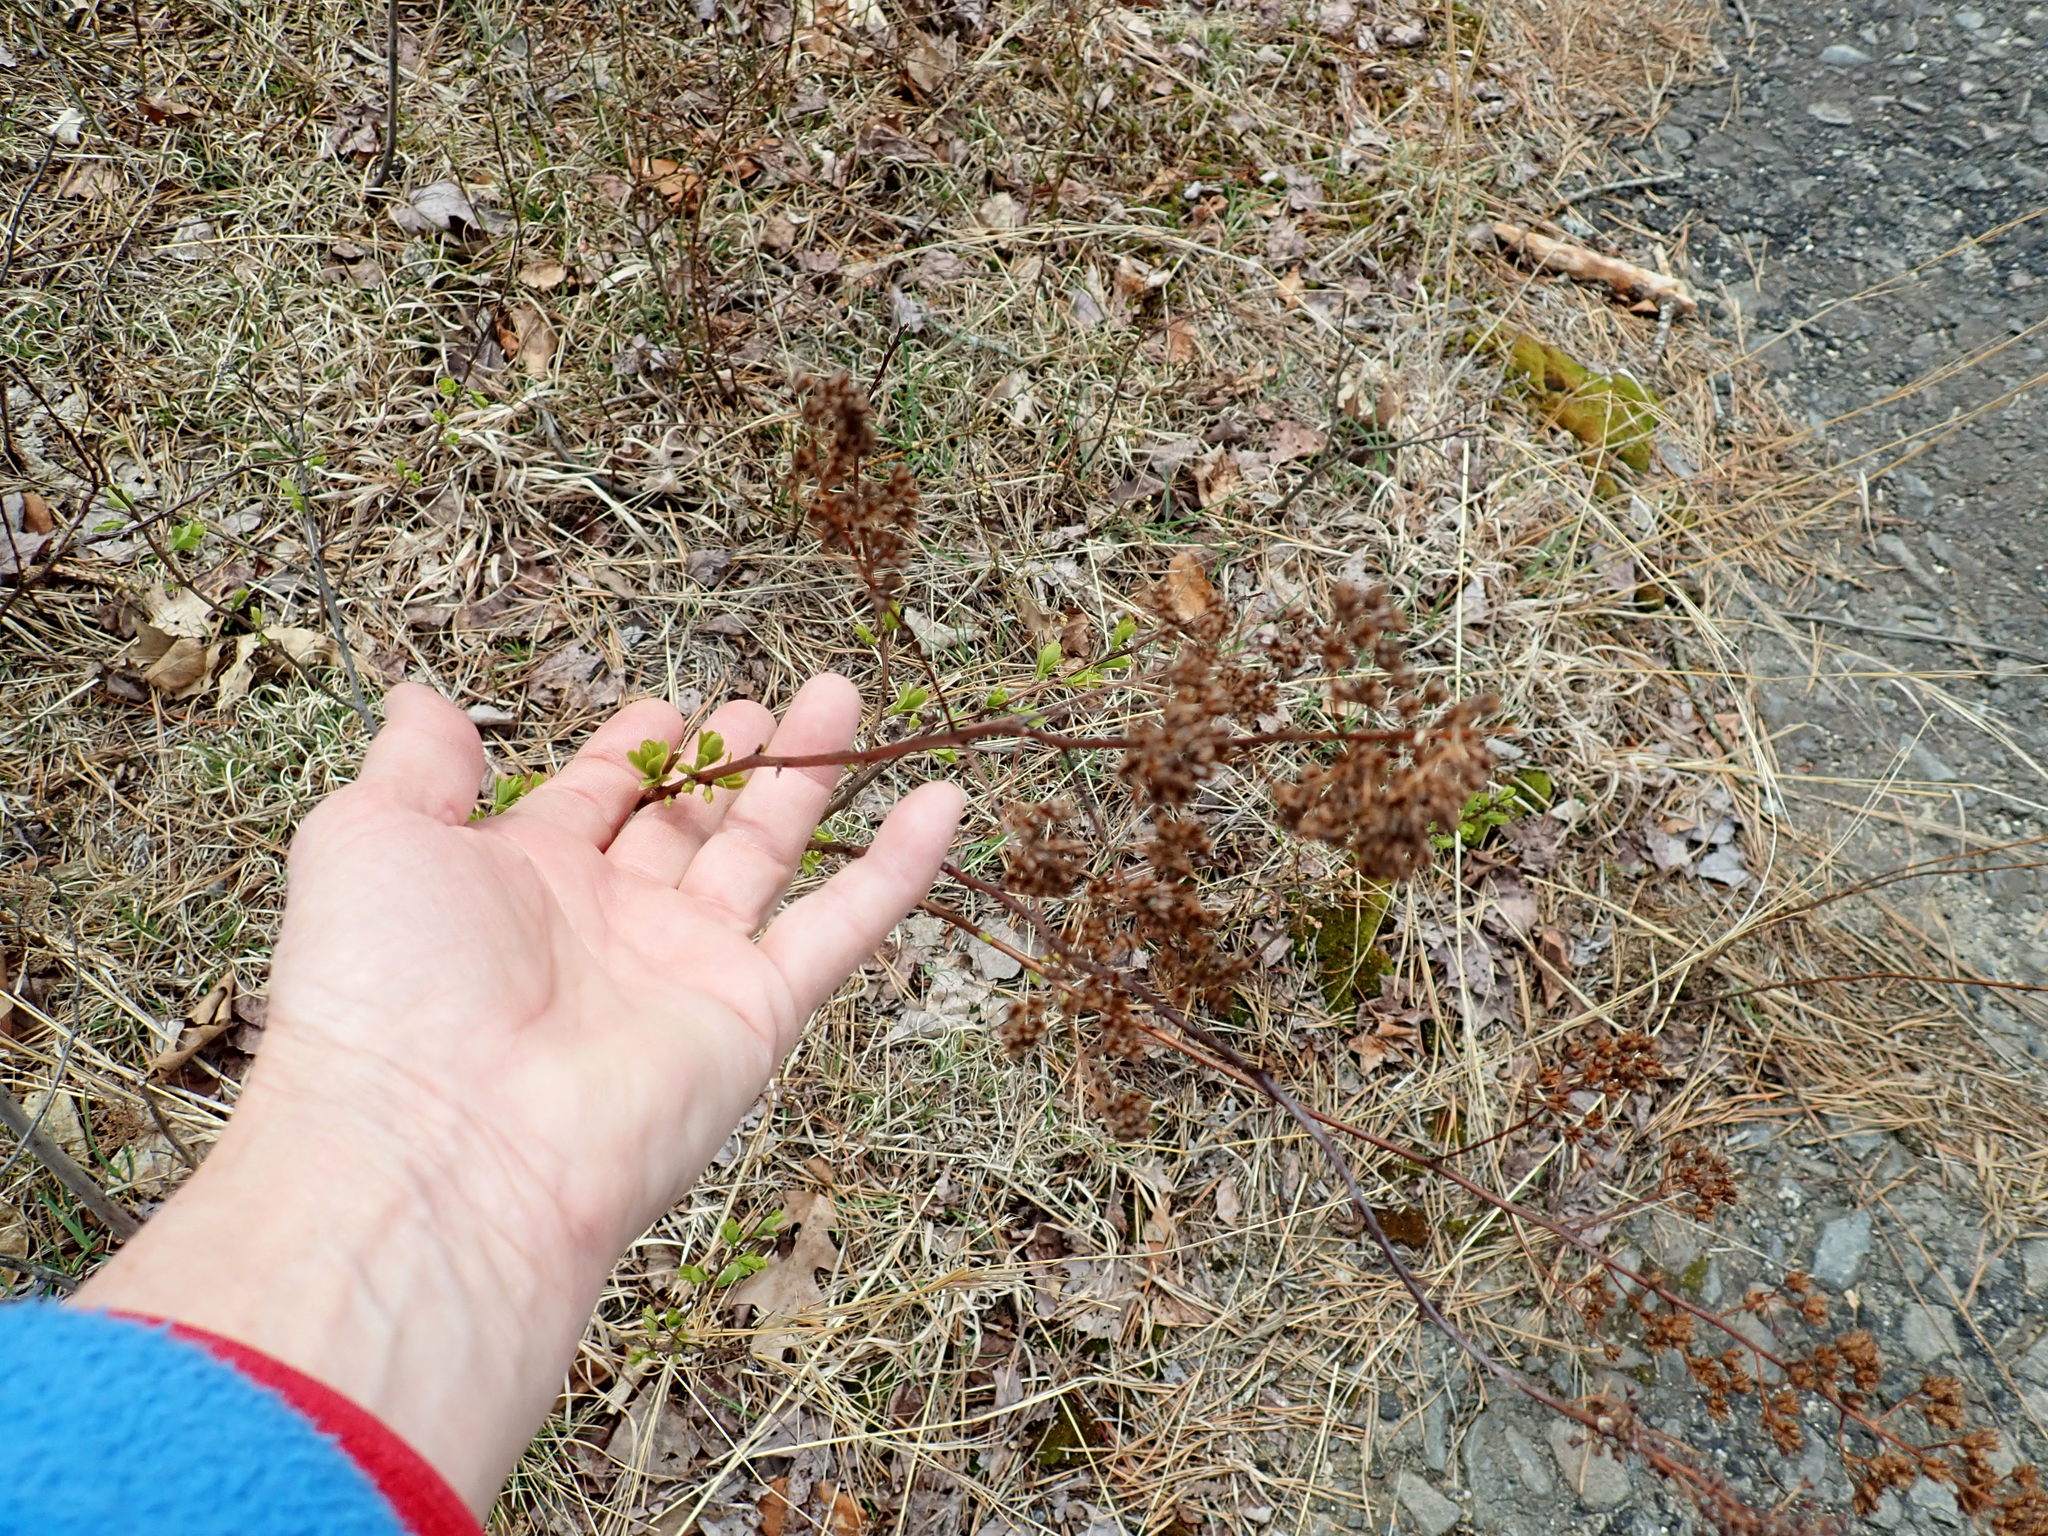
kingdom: Plantae
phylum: Tracheophyta
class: Magnoliopsida
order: Rosales
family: Rosaceae
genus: Spiraea
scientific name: Spiraea alba
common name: Pale bridewort
